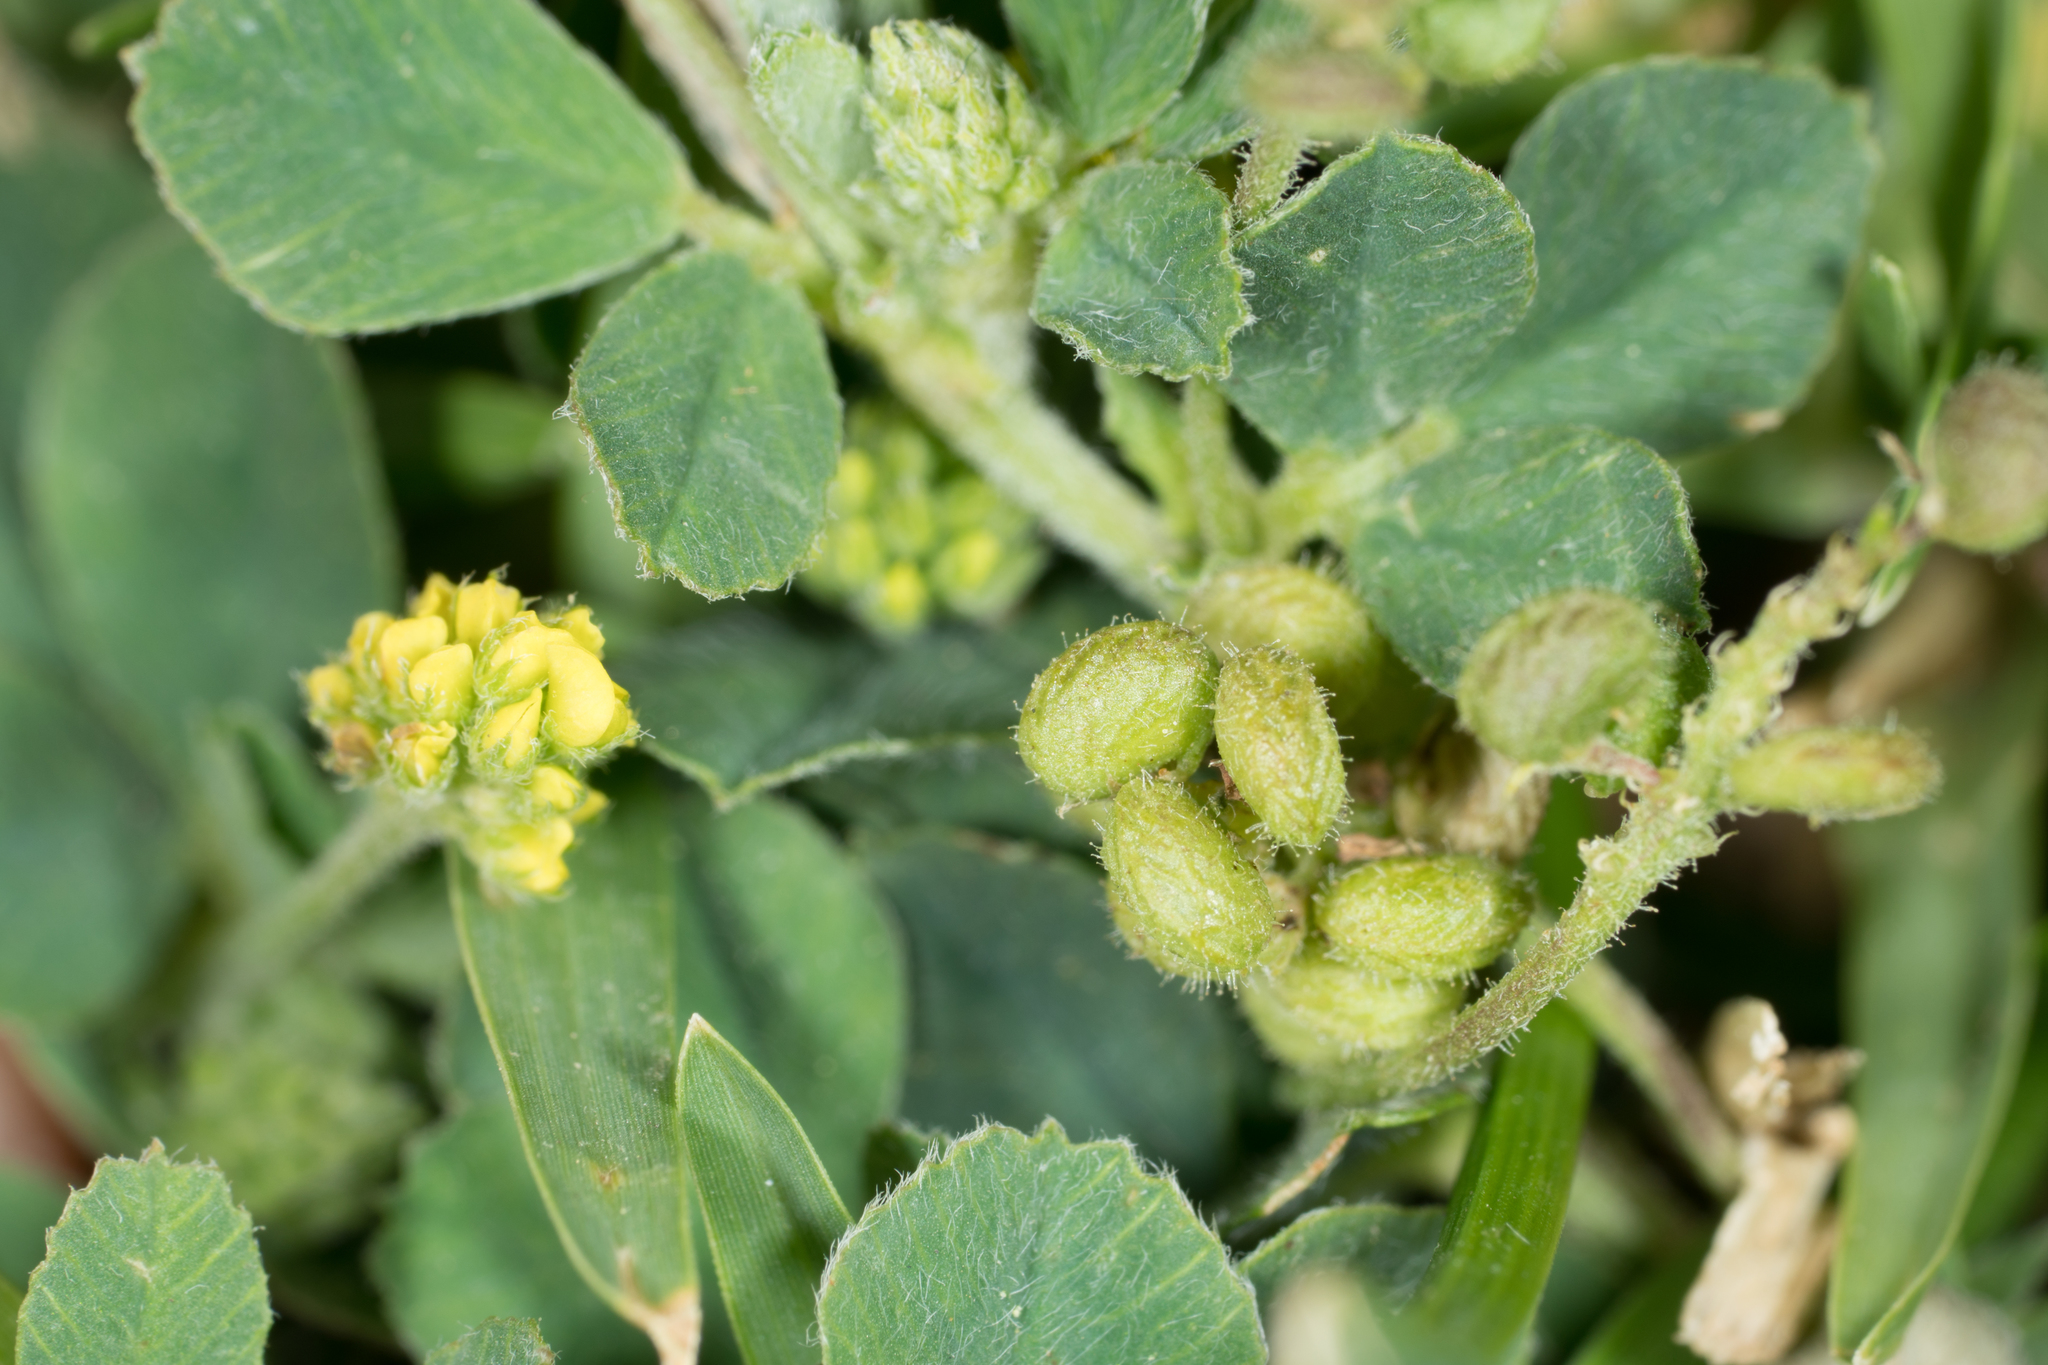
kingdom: Plantae
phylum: Tracheophyta
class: Magnoliopsida
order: Fabales
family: Fabaceae
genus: Medicago
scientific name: Medicago lupulina
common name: Black medick
